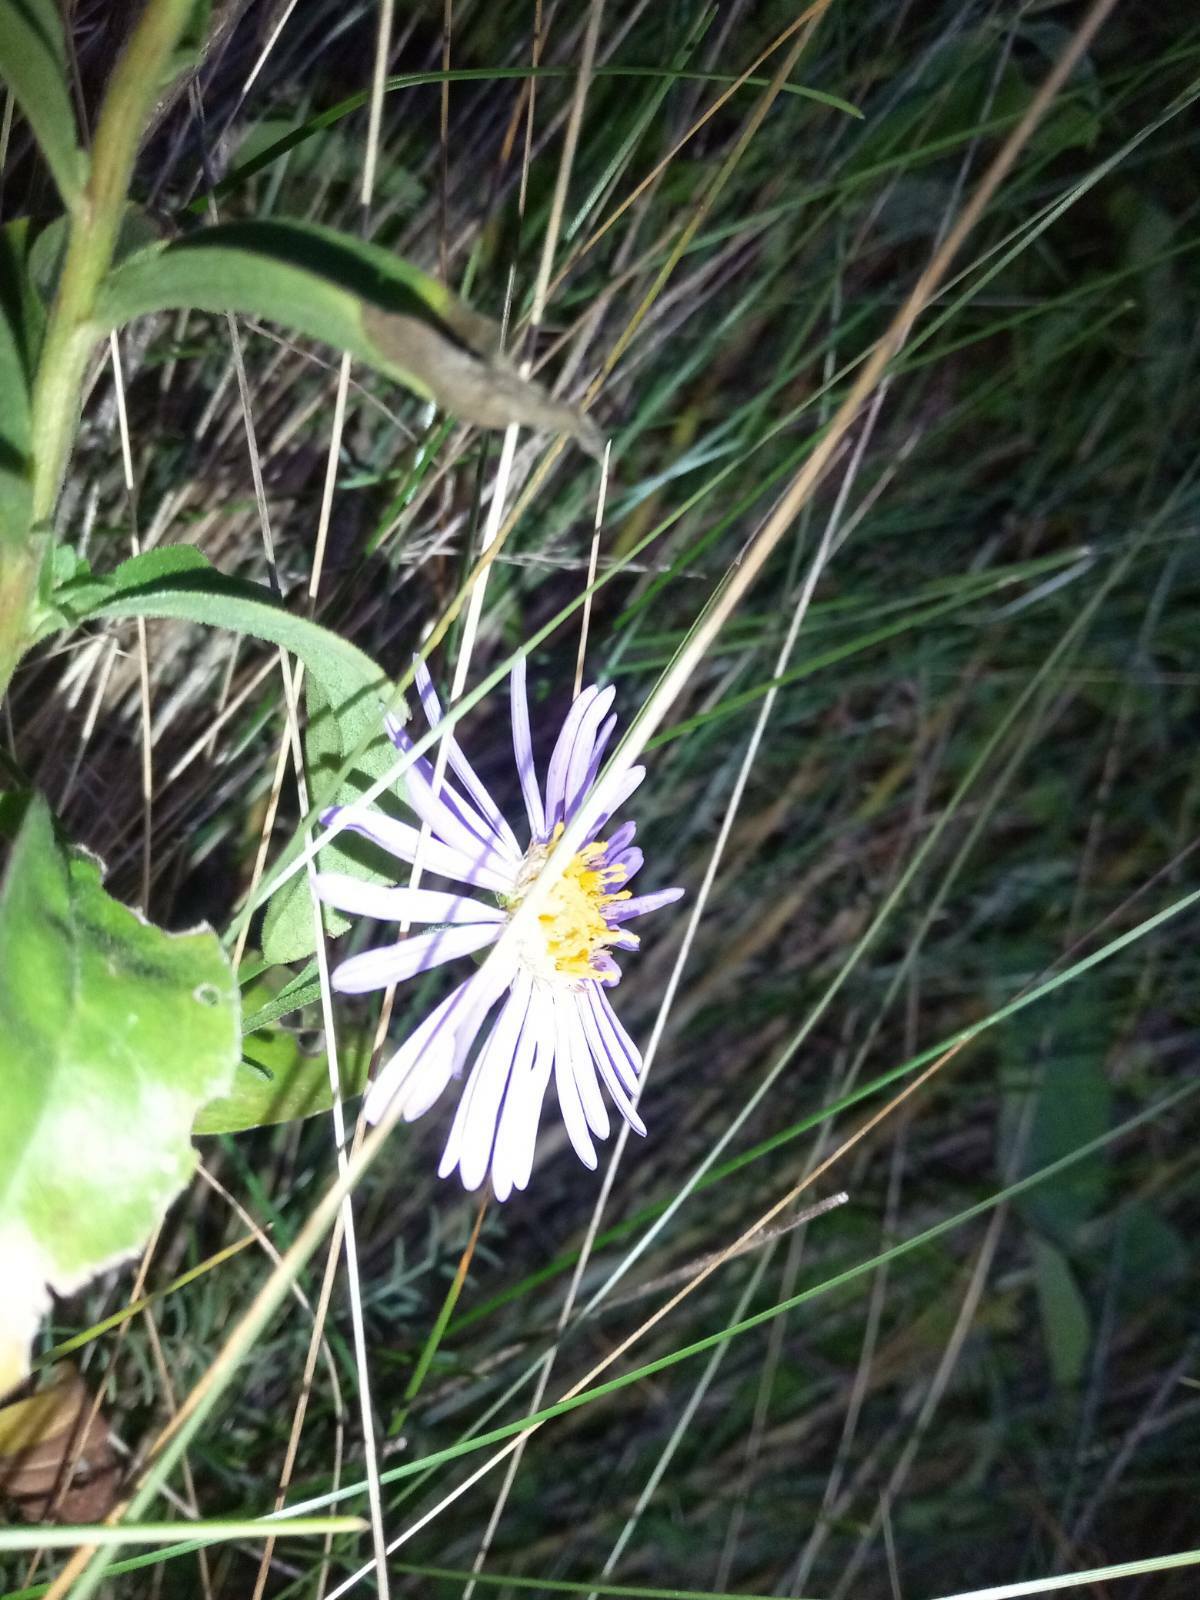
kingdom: Plantae
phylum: Tracheophyta
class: Magnoliopsida
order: Asterales
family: Asteraceae
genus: Aster
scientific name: Aster amellus
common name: European michaelmas daisy
